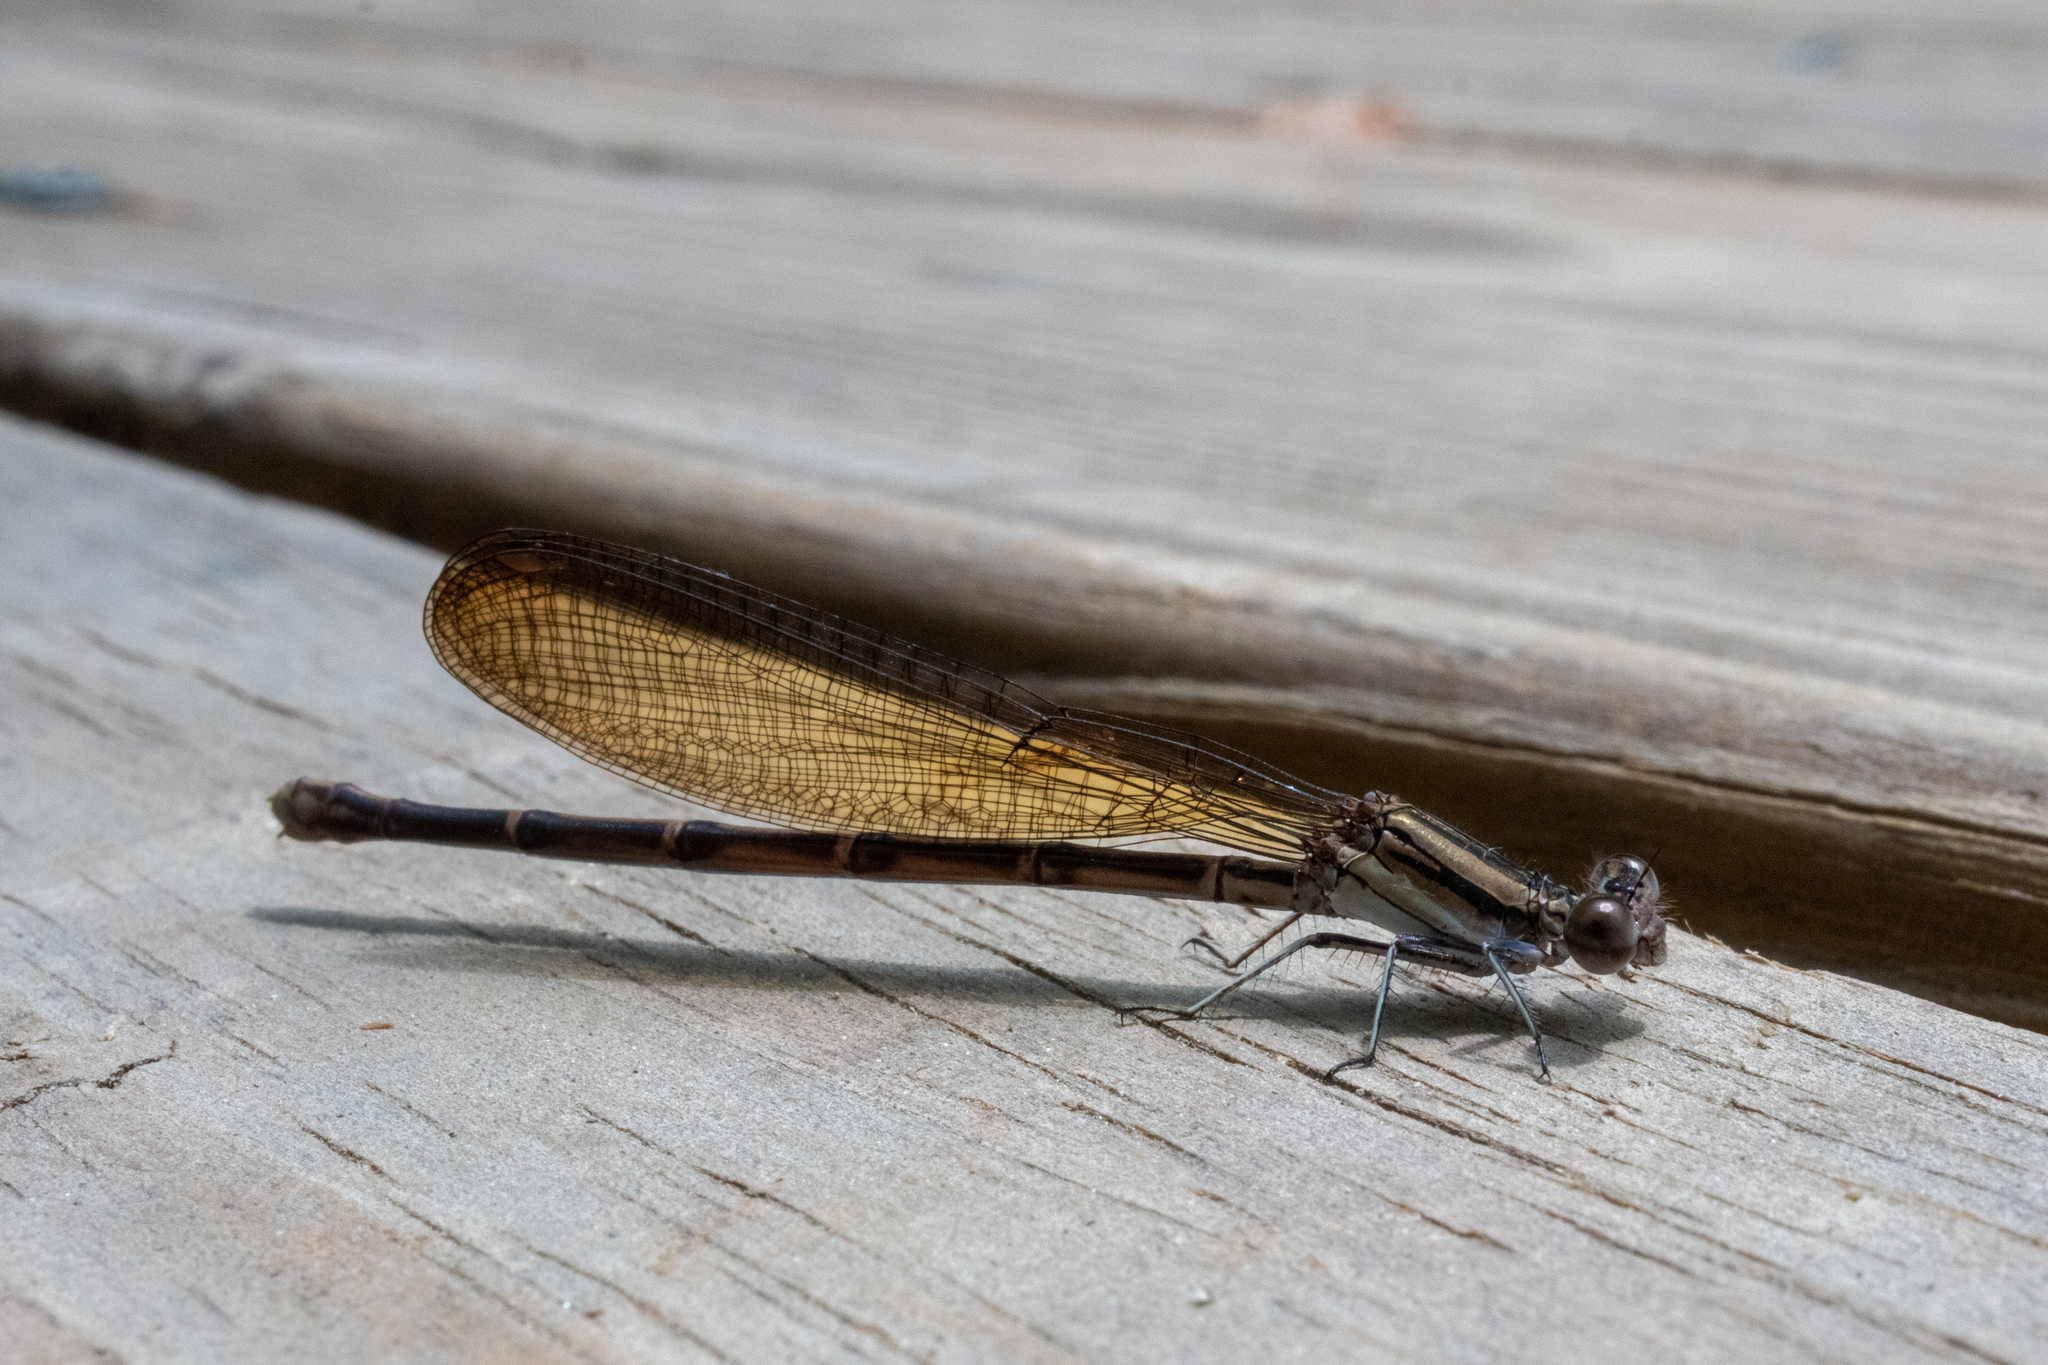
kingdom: Animalia
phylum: Arthropoda
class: Insecta
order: Odonata
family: Coenagrionidae
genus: Argia
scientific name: Argia fumipennis
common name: Variable dancer
